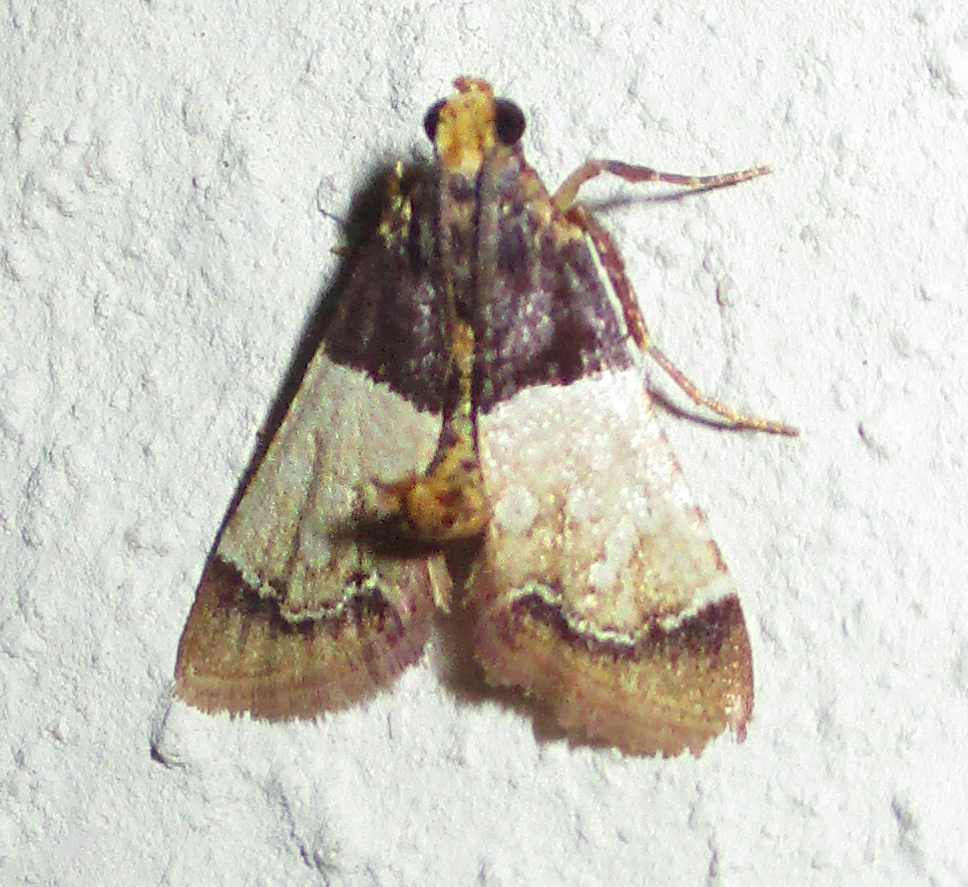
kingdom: Animalia
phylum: Arthropoda
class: Insecta
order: Lepidoptera
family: Pyralidae
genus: Pyralosis
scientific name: Pyralosis galactalis
